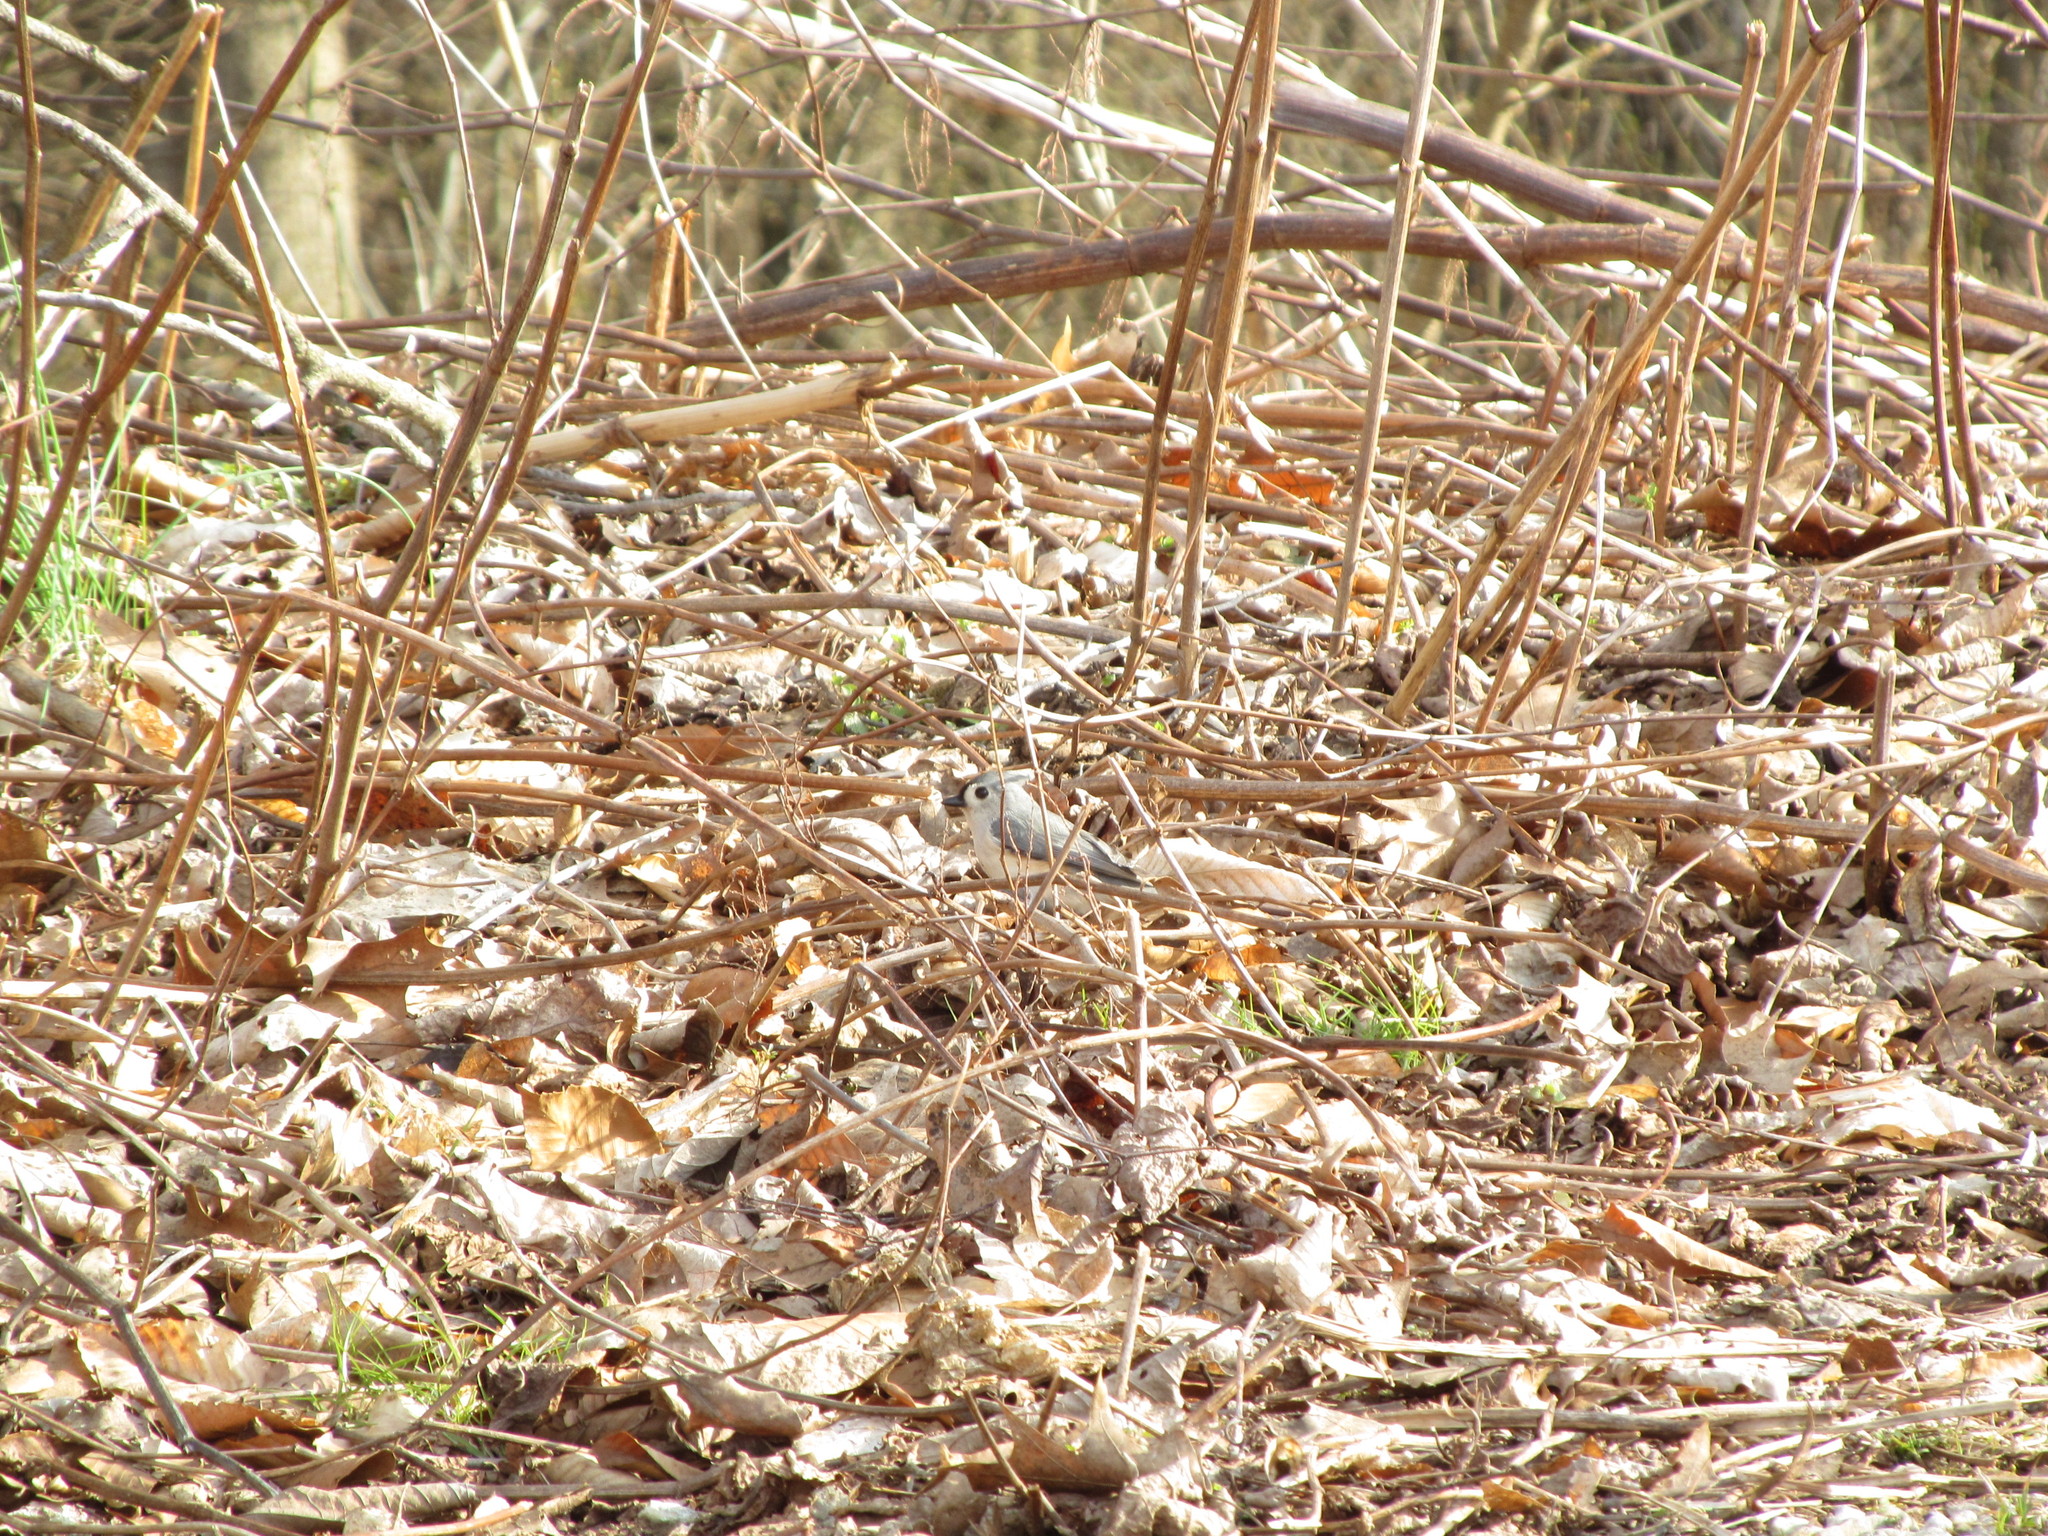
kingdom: Animalia
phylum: Chordata
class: Aves
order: Passeriformes
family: Paridae
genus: Baeolophus
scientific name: Baeolophus bicolor
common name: Tufted titmouse
